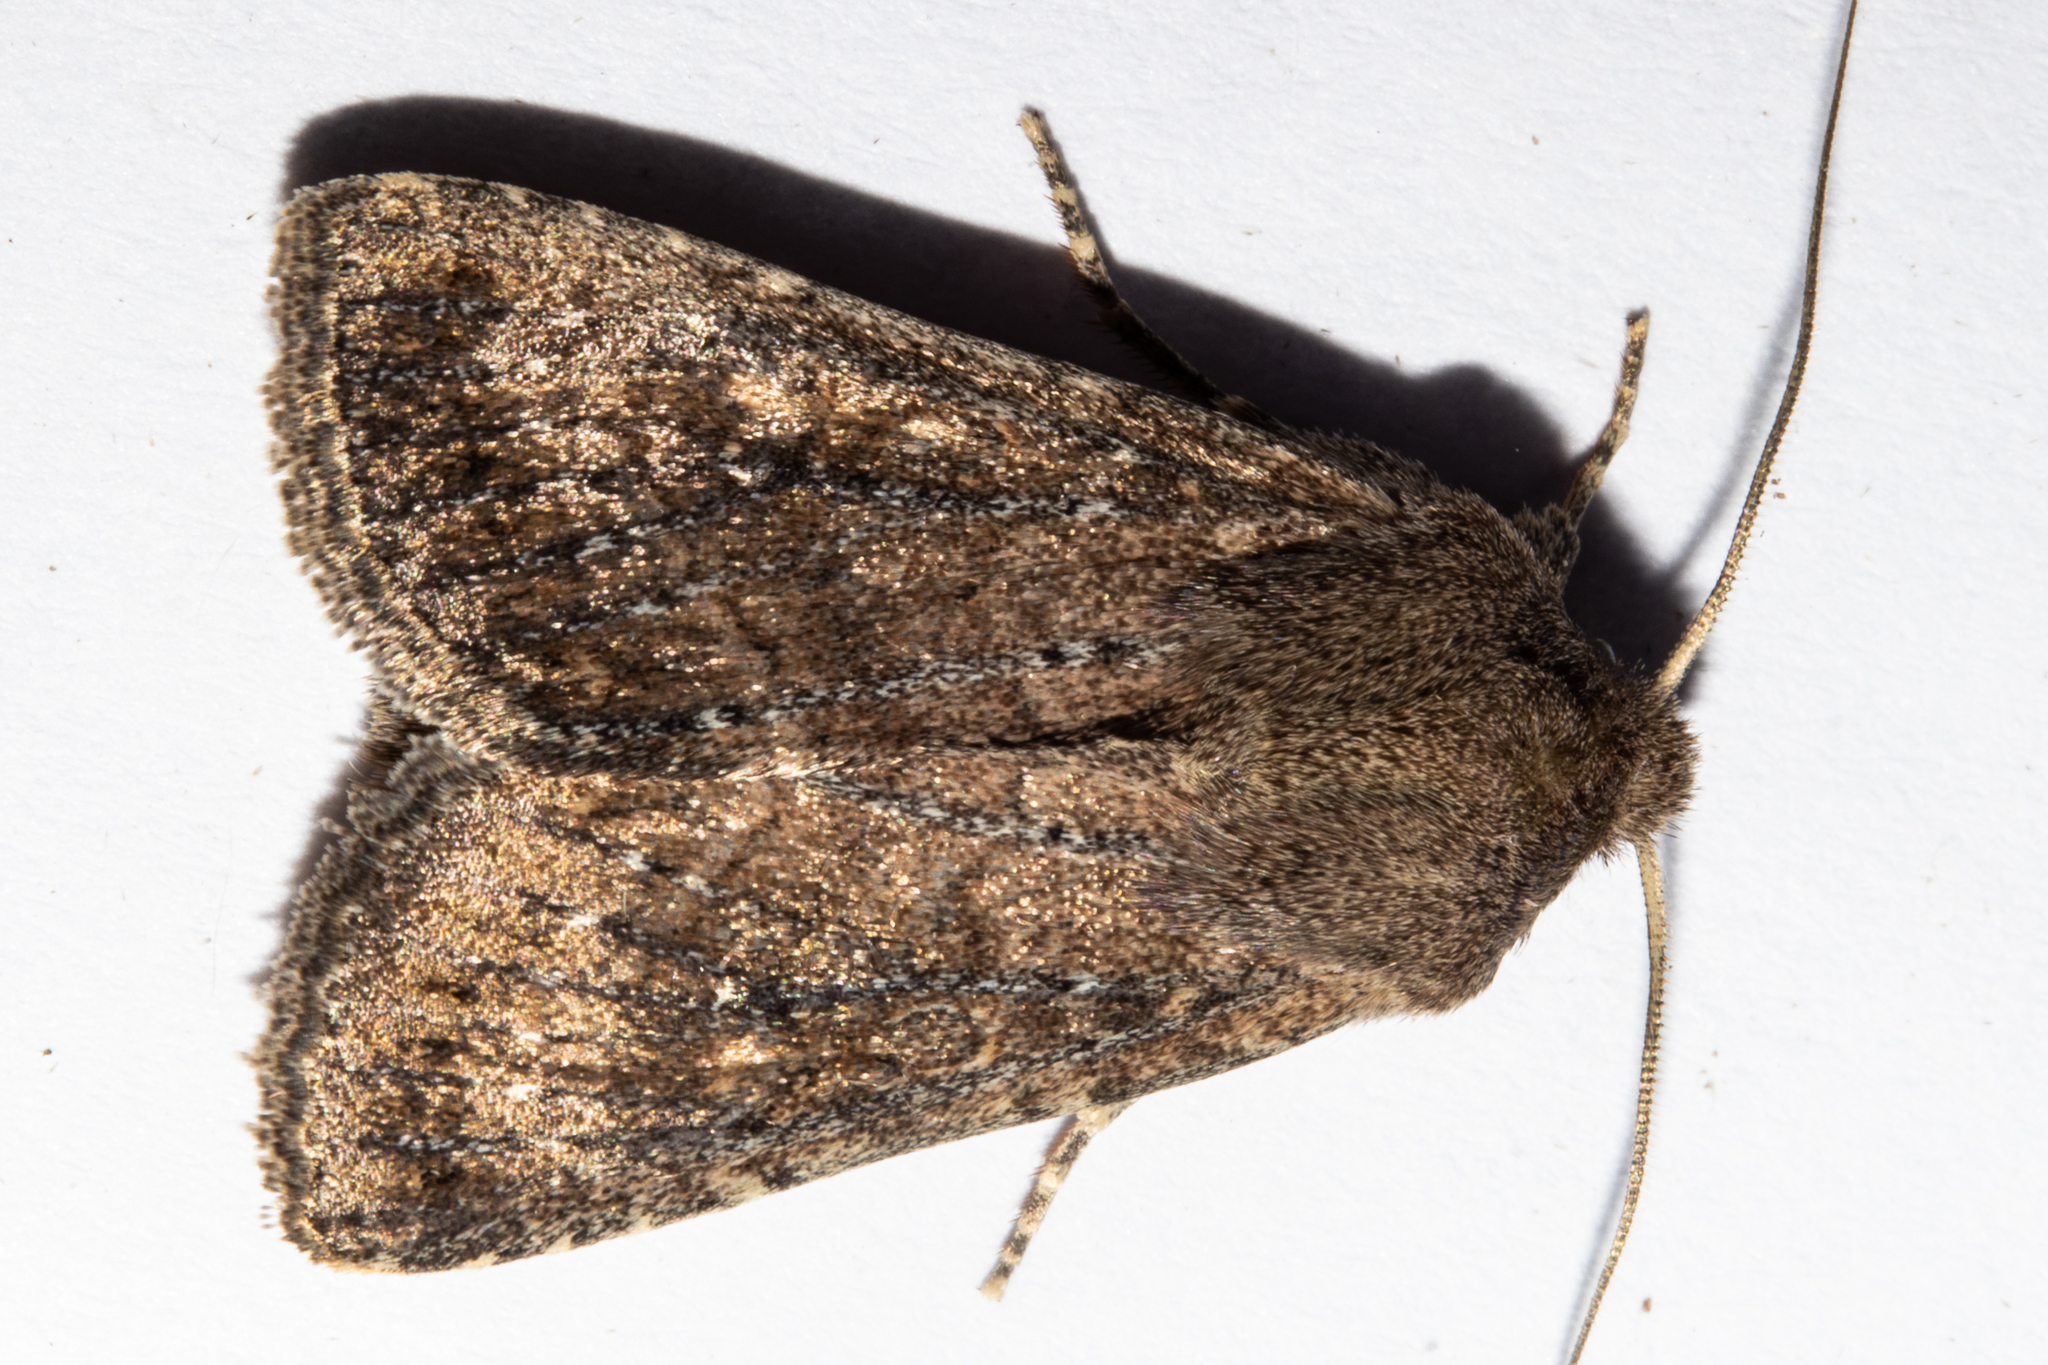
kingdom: Animalia
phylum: Arthropoda
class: Insecta
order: Lepidoptera
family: Noctuidae
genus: Physetica
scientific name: Physetica
